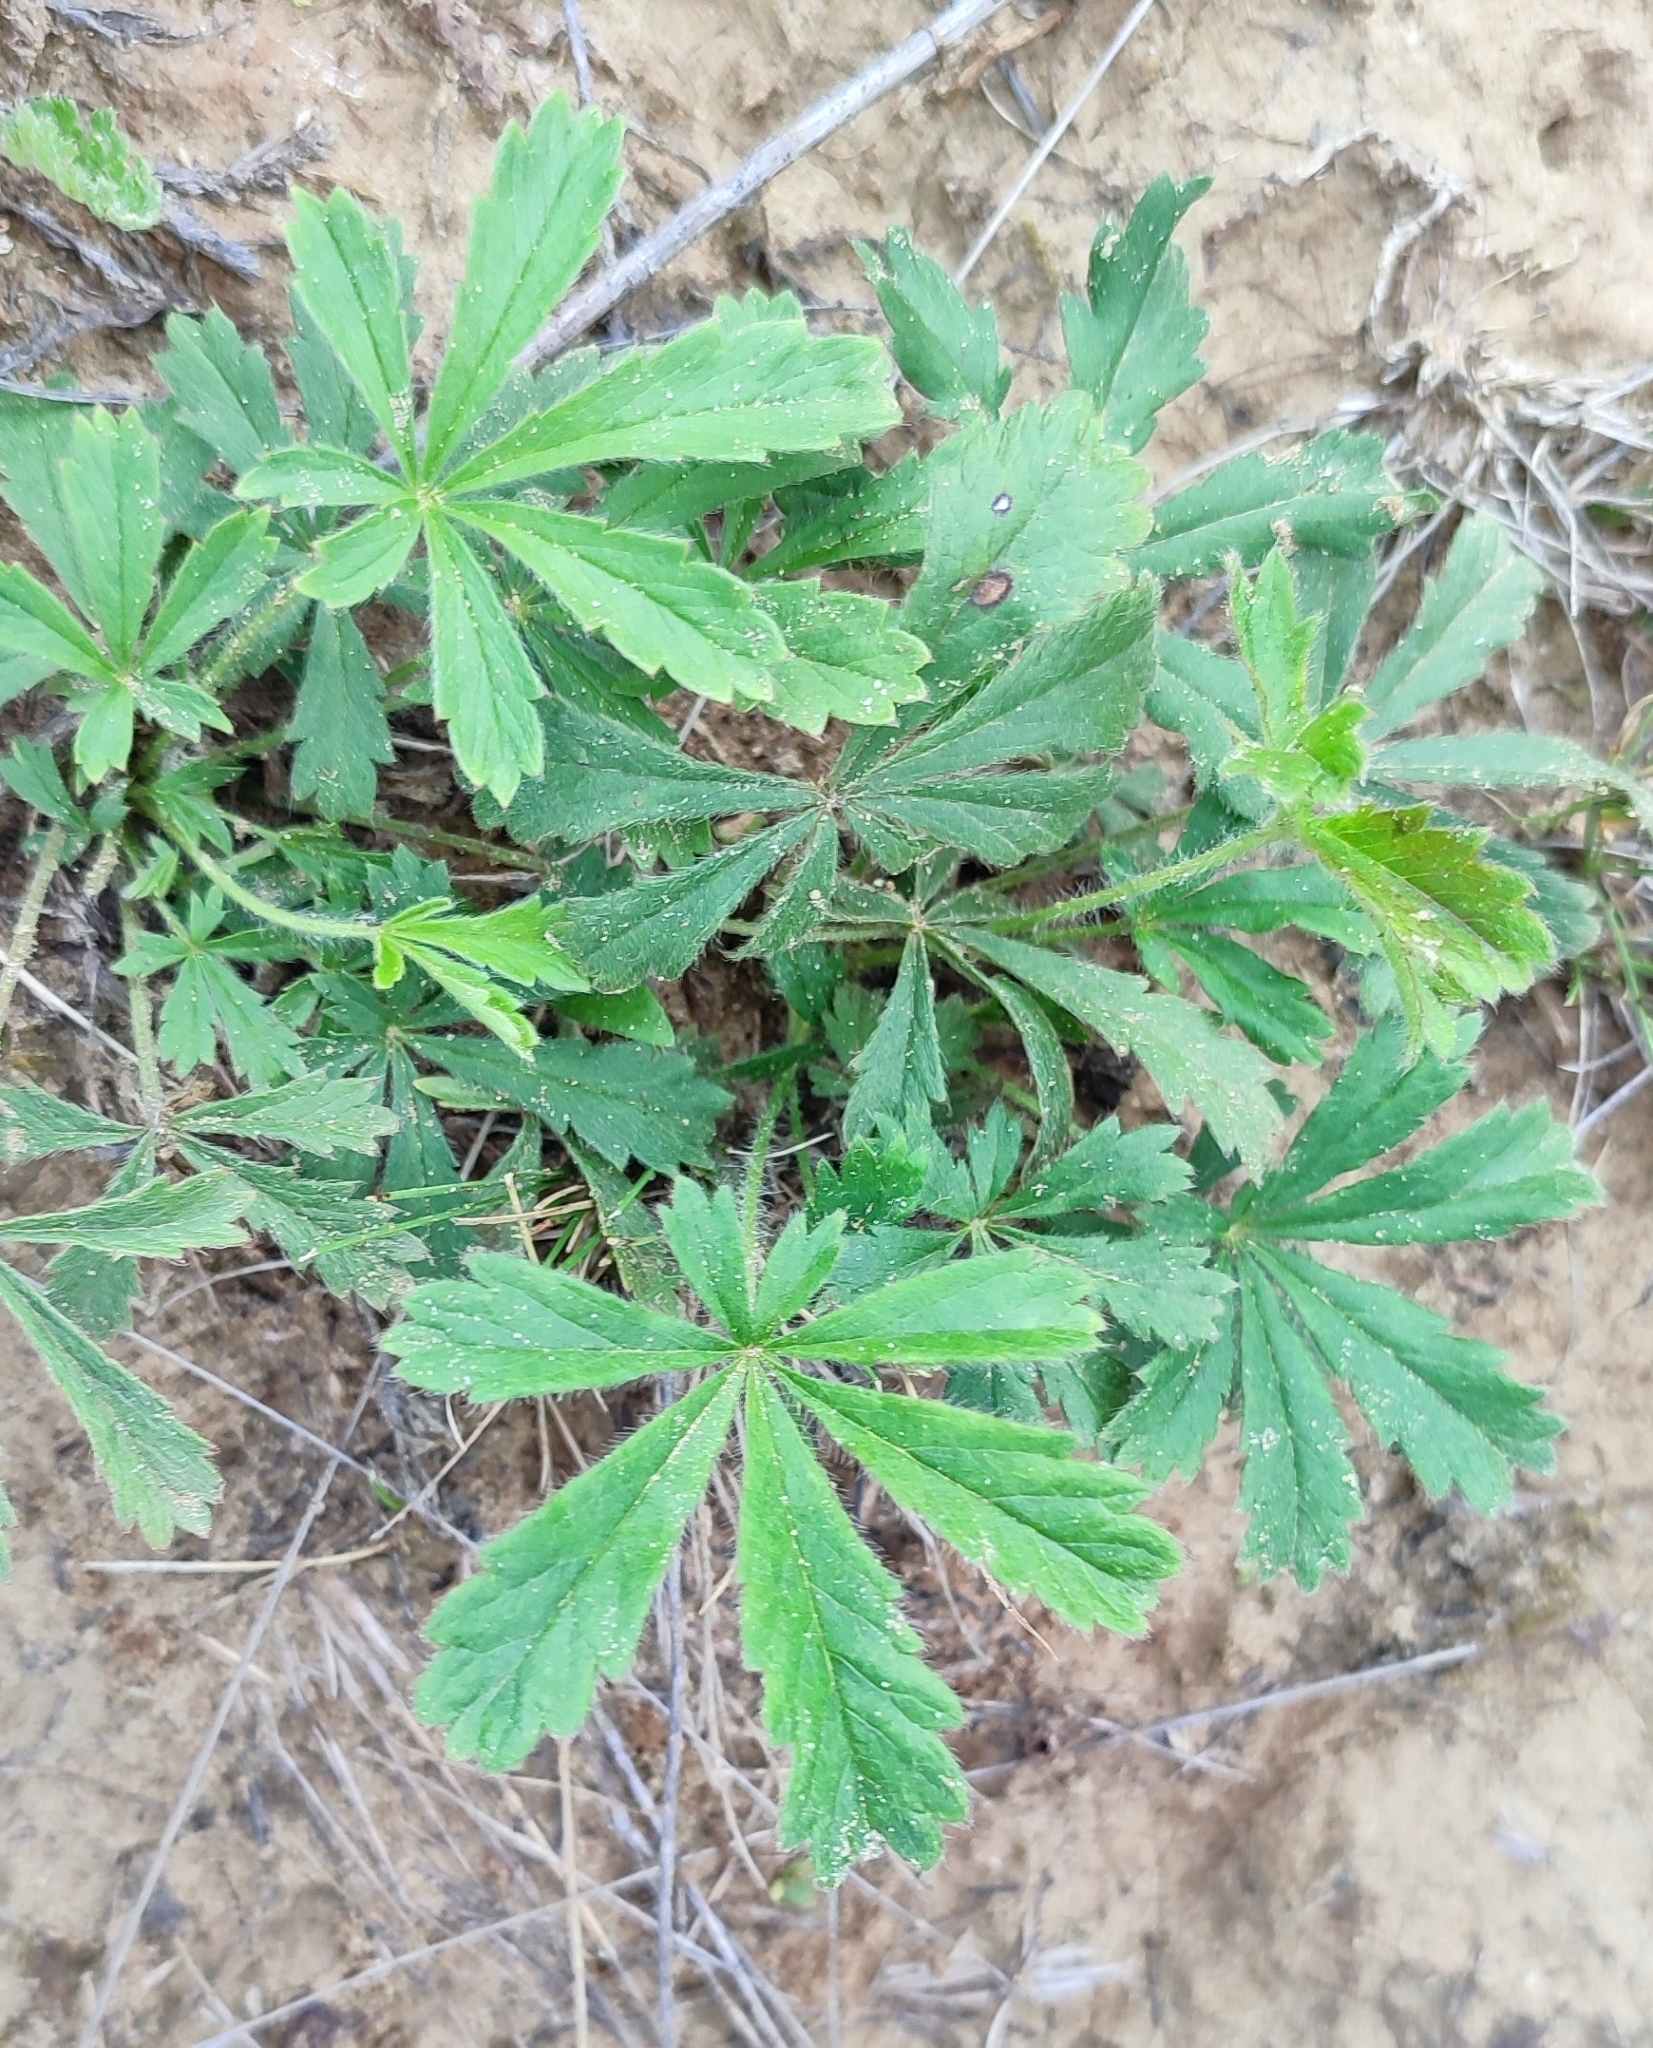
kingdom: Plantae
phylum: Tracheophyta
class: Magnoliopsida
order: Rosales
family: Rosaceae
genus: Potentilla
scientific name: Potentilla humifusa
